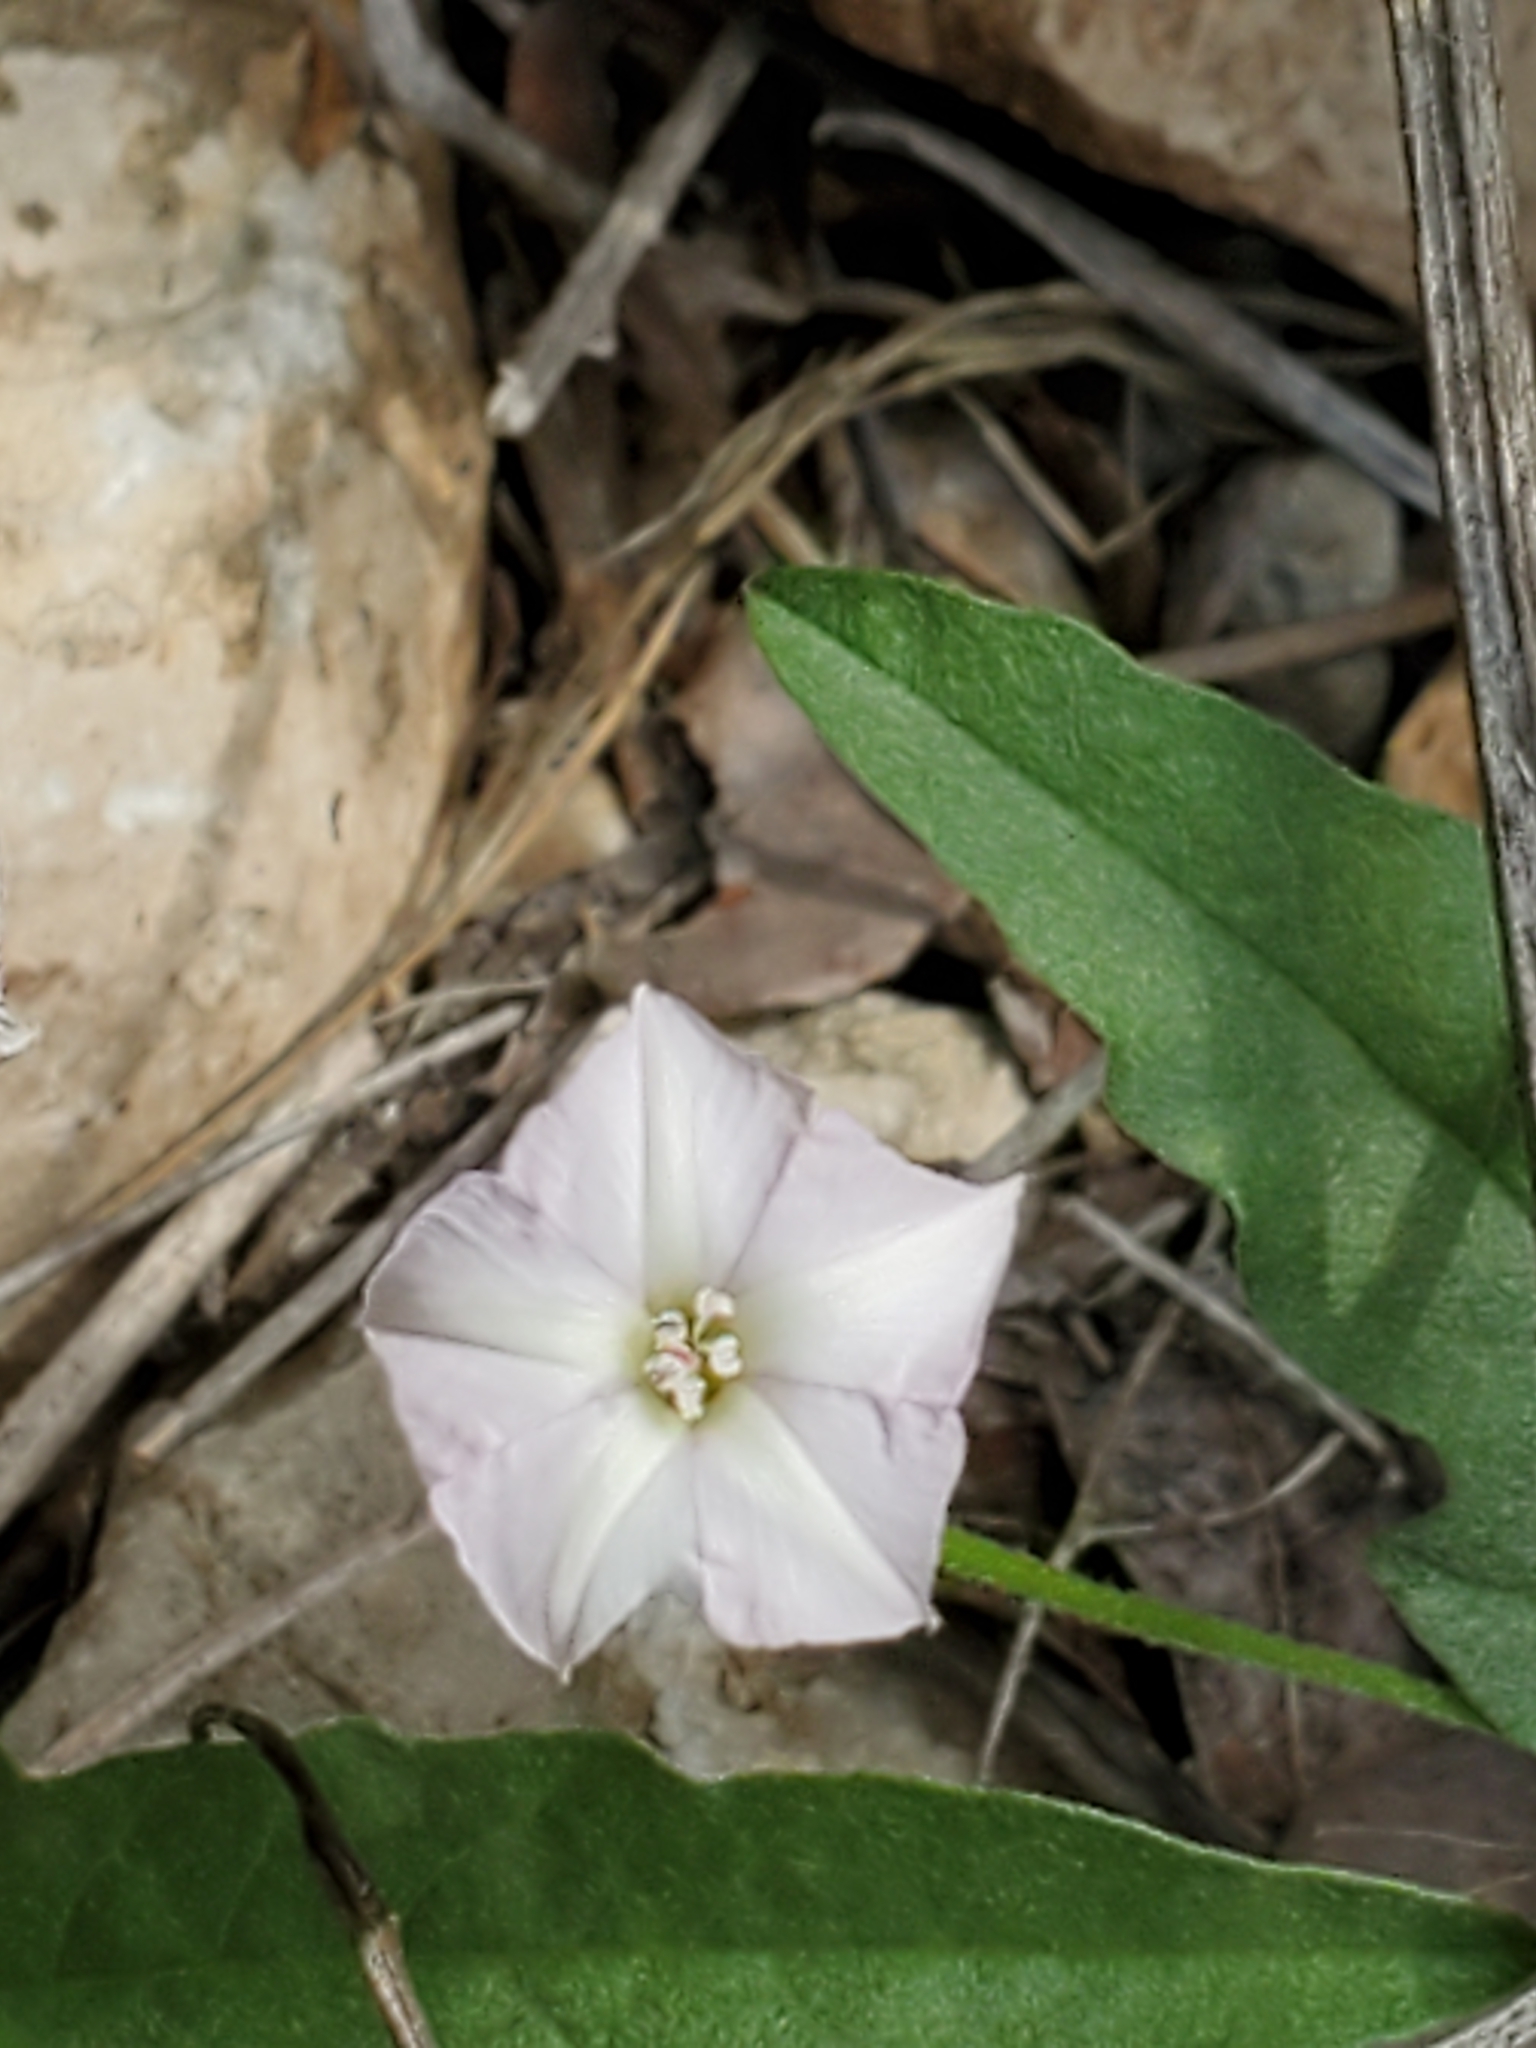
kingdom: Plantae
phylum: Tracheophyta
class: Magnoliopsida
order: Solanales
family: Convolvulaceae
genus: Convolvulus
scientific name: Convolvulus equitans
